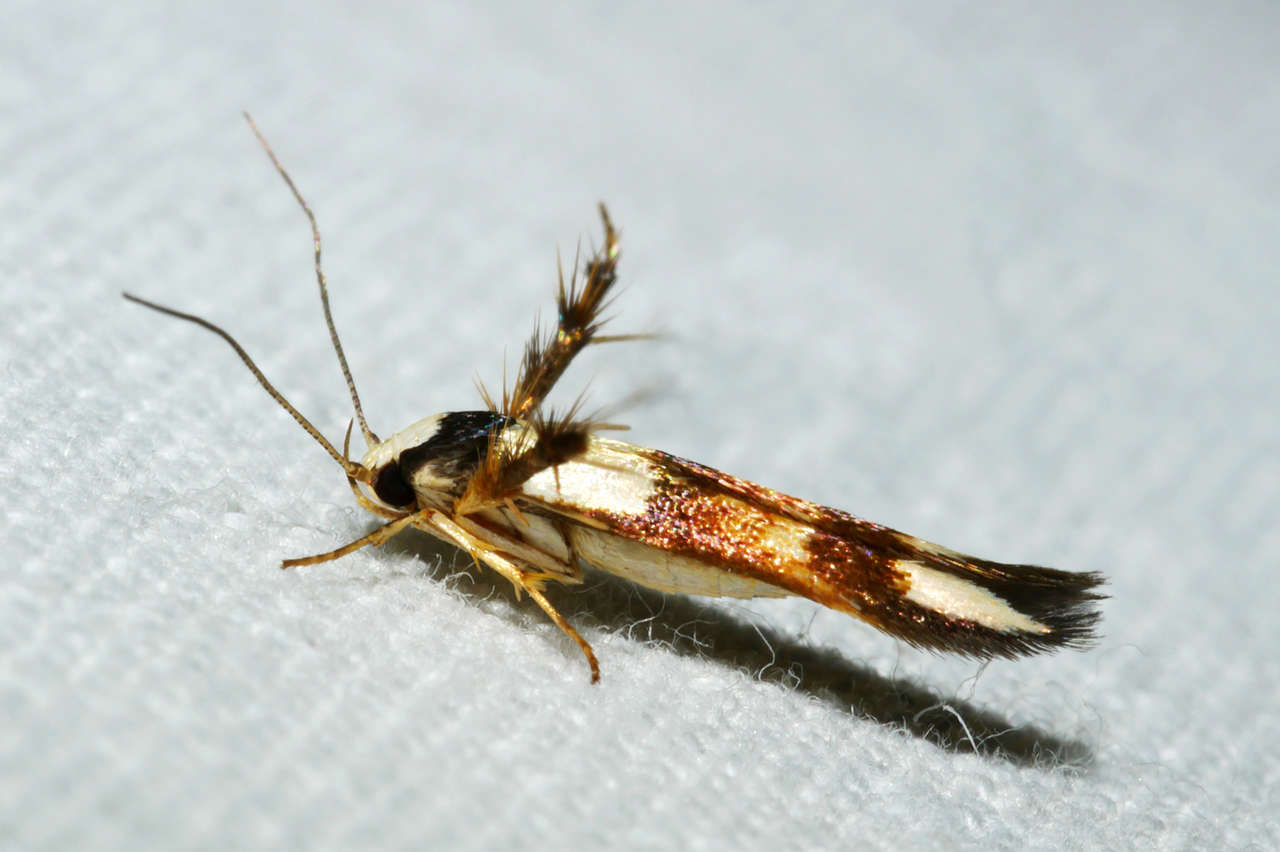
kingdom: Animalia
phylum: Arthropoda
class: Insecta
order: Lepidoptera
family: Stathmopodidae
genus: Stathmopoda
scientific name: Stathmopoda pantarches
